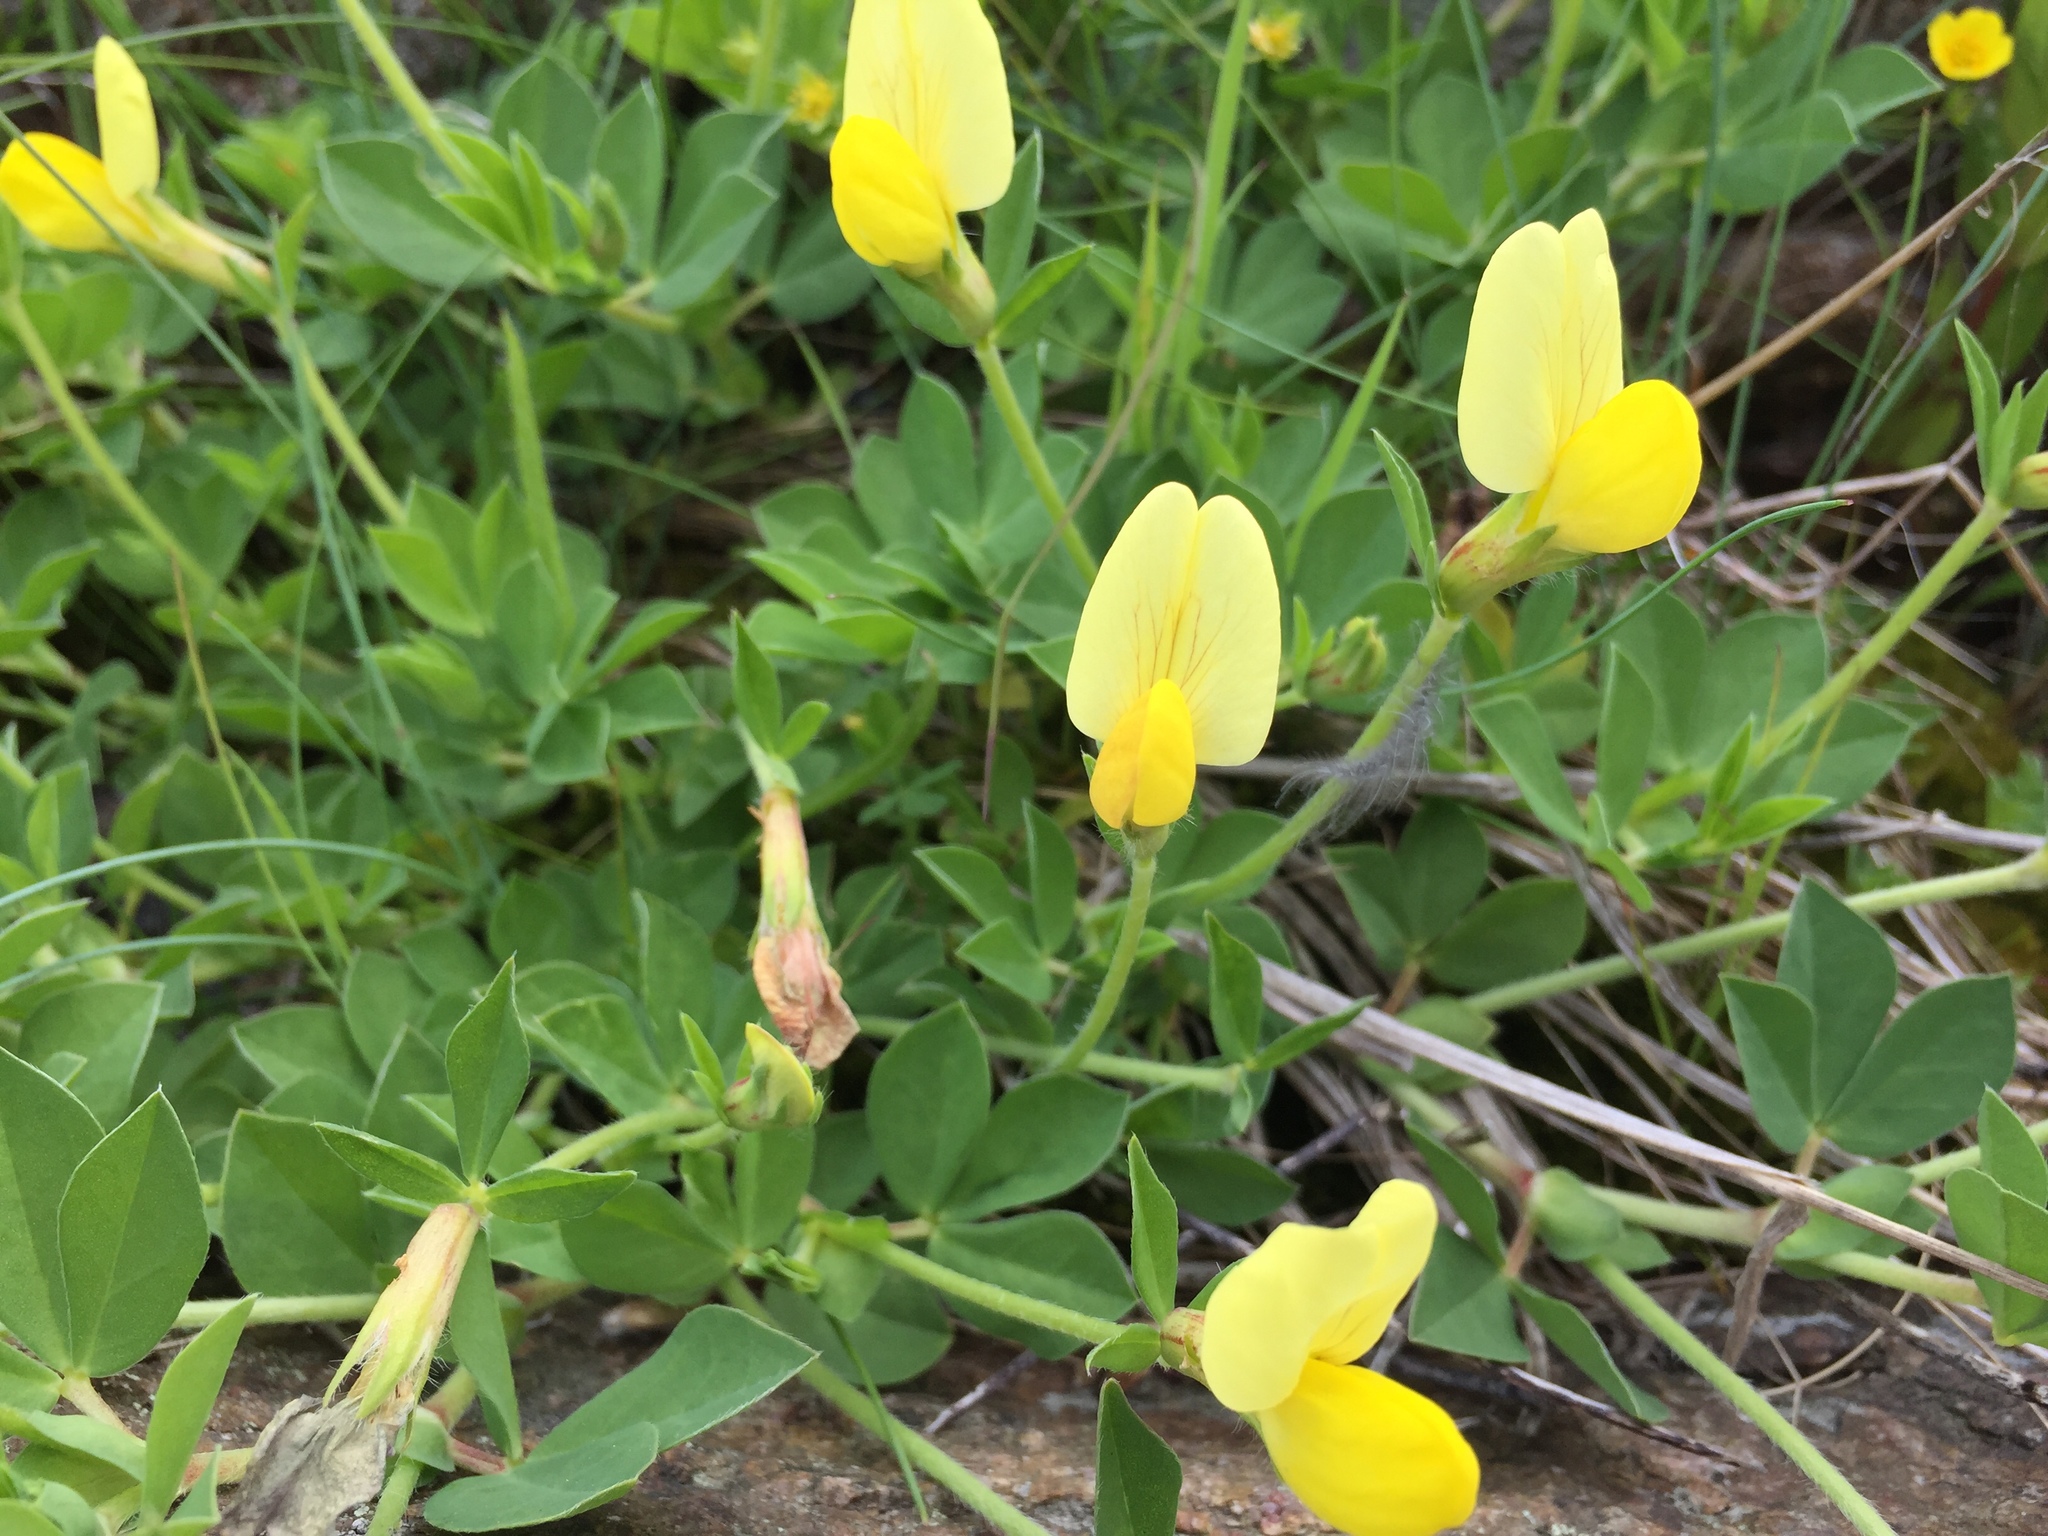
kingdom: Plantae
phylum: Tracheophyta
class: Magnoliopsida
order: Fabales
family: Fabaceae
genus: Lotus
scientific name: Lotus maritimus
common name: Dragon's-teeth
